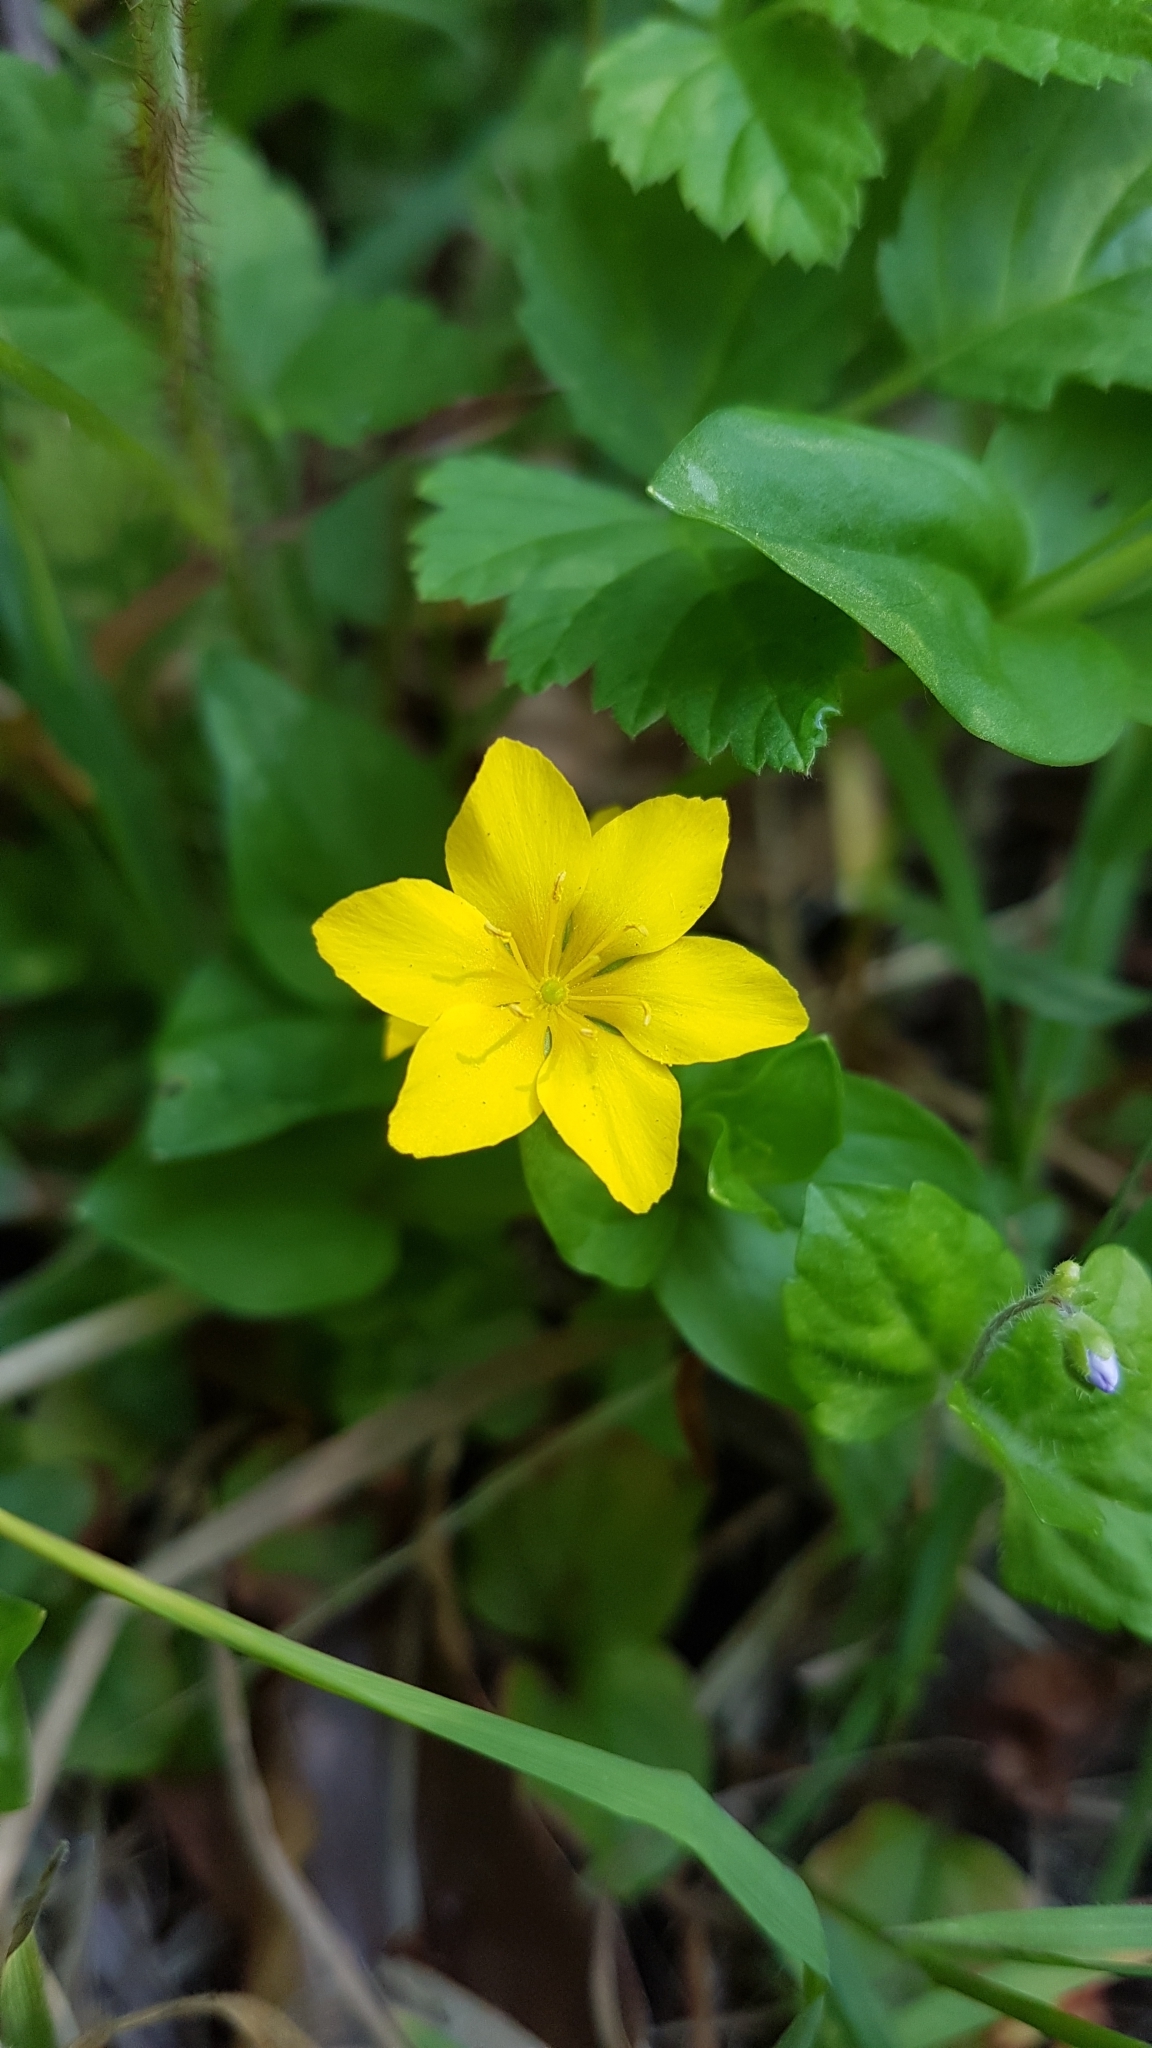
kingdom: Plantae
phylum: Tracheophyta
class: Magnoliopsida
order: Ericales
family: Primulaceae
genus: Lysimachia
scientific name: Lysimachia nemorum
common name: Yellow pimpernel
